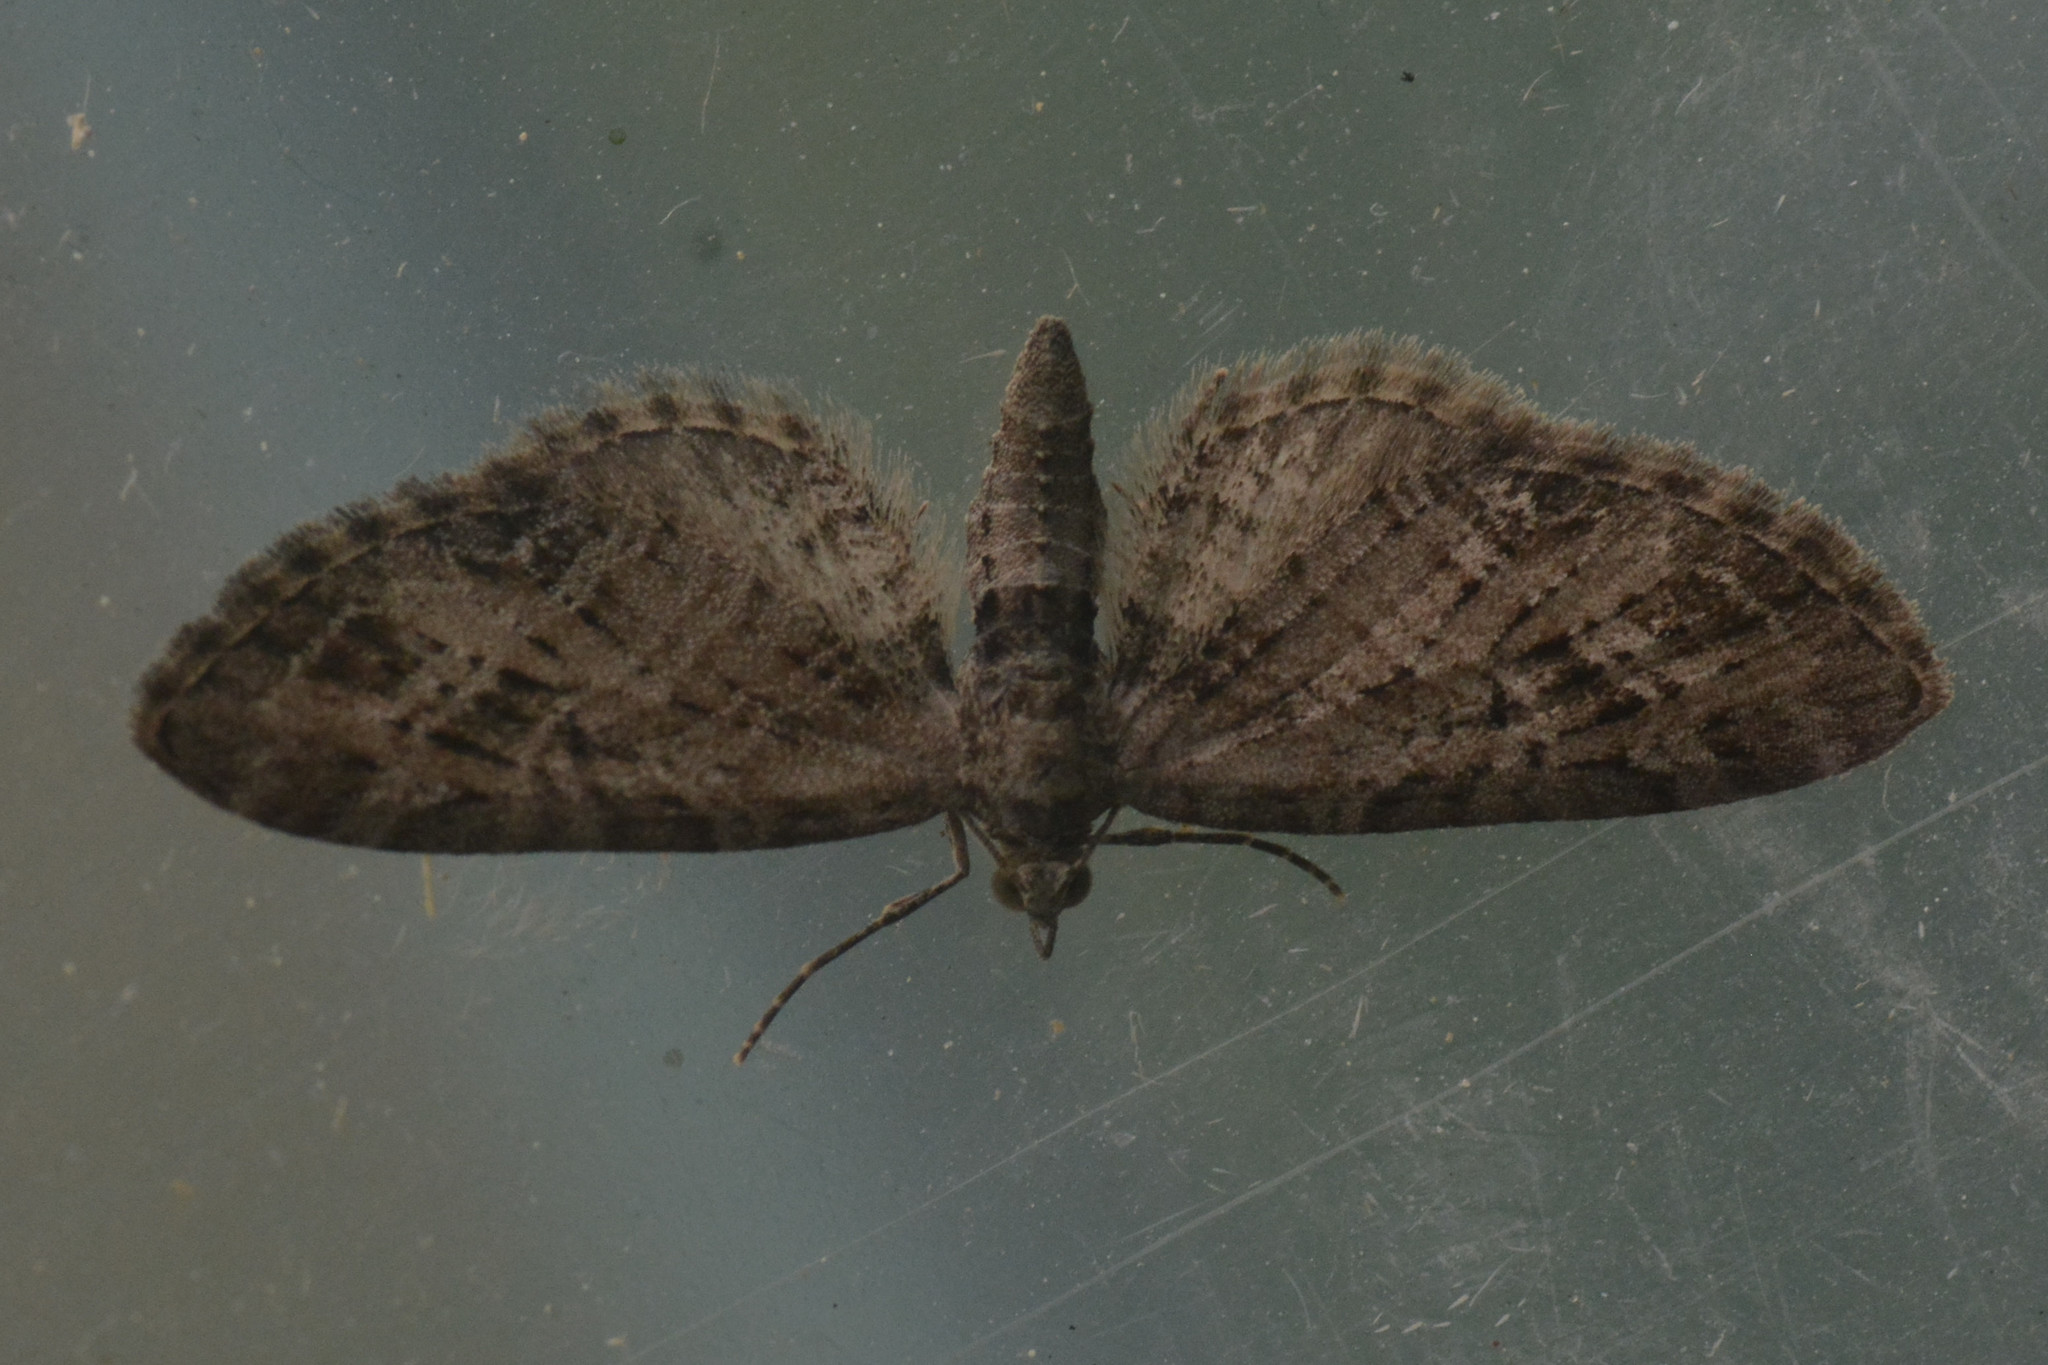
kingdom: Animalia
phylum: Arthropoda
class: Insecta
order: Lepidoptera
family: Geometridae
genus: Eupithecia
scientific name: Eupithecia exiguata
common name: Mottled pug
